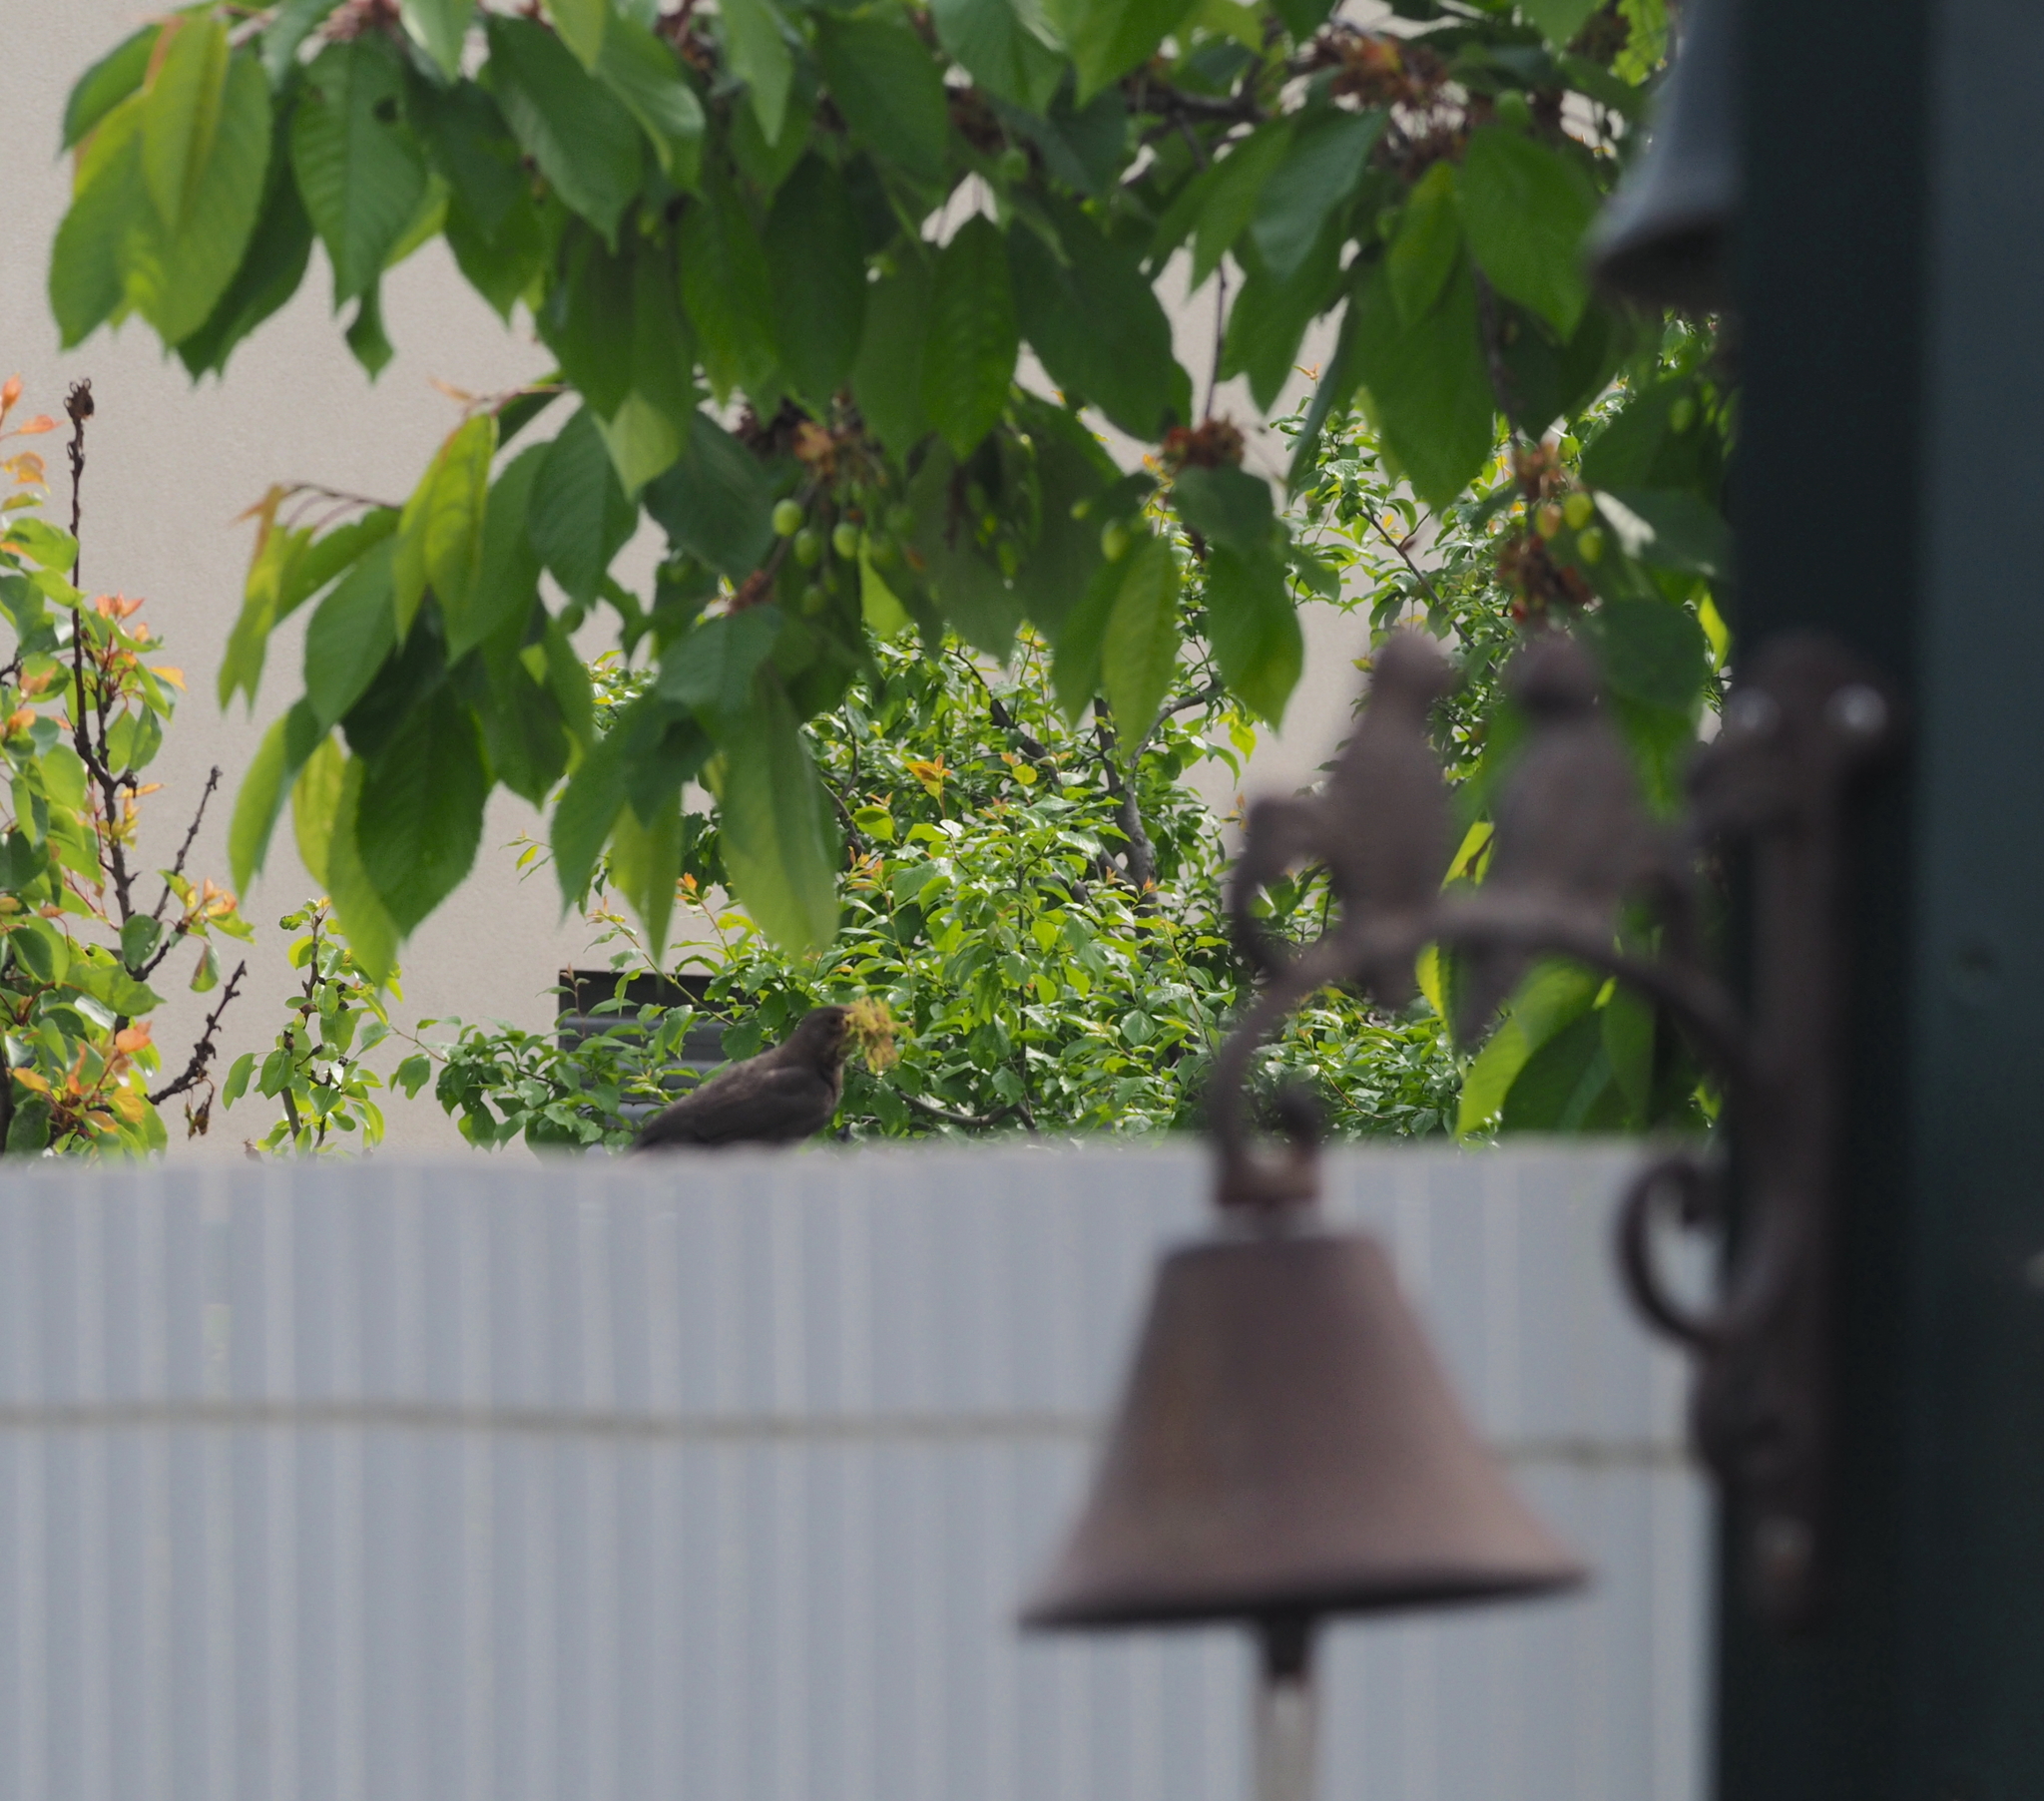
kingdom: Animalia
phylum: Chordata
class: Aves
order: Passeriformes
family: Turdidae
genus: Turdus
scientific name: Turdus merula
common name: Common blackbird
